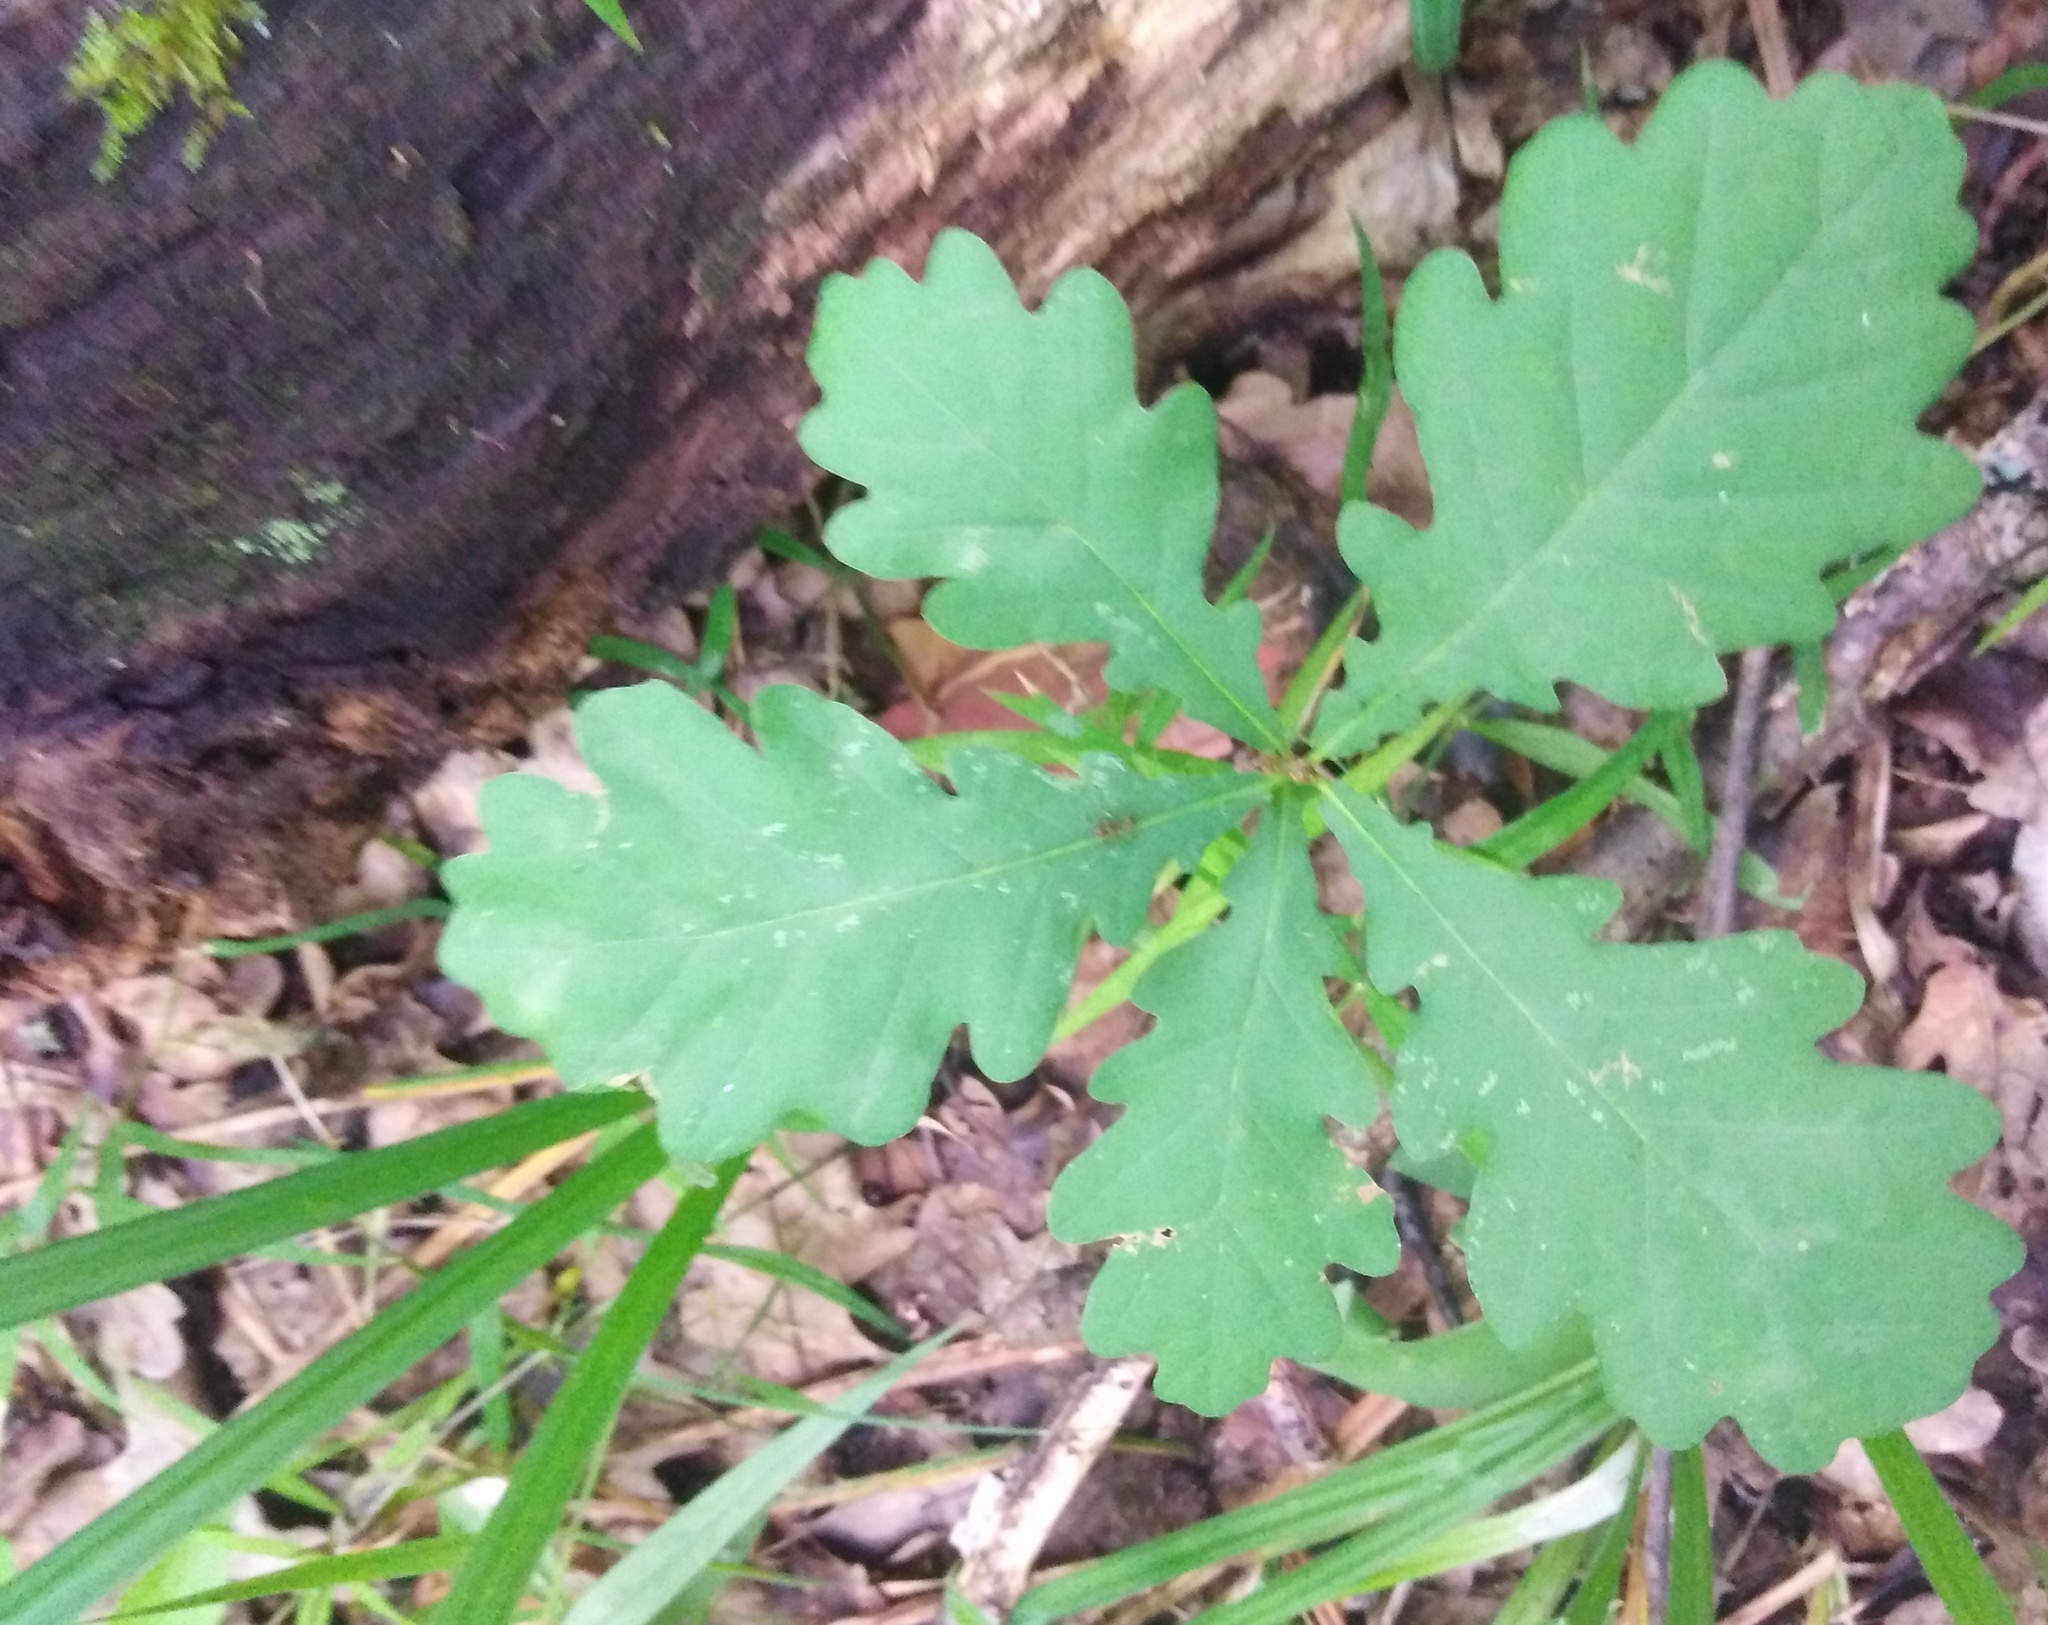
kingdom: Plantae
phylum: Tracheophyta
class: Magnoliopsida
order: Fagales
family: Fagaceae
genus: Quercus
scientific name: Quercus robur
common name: Pedunculate oak
